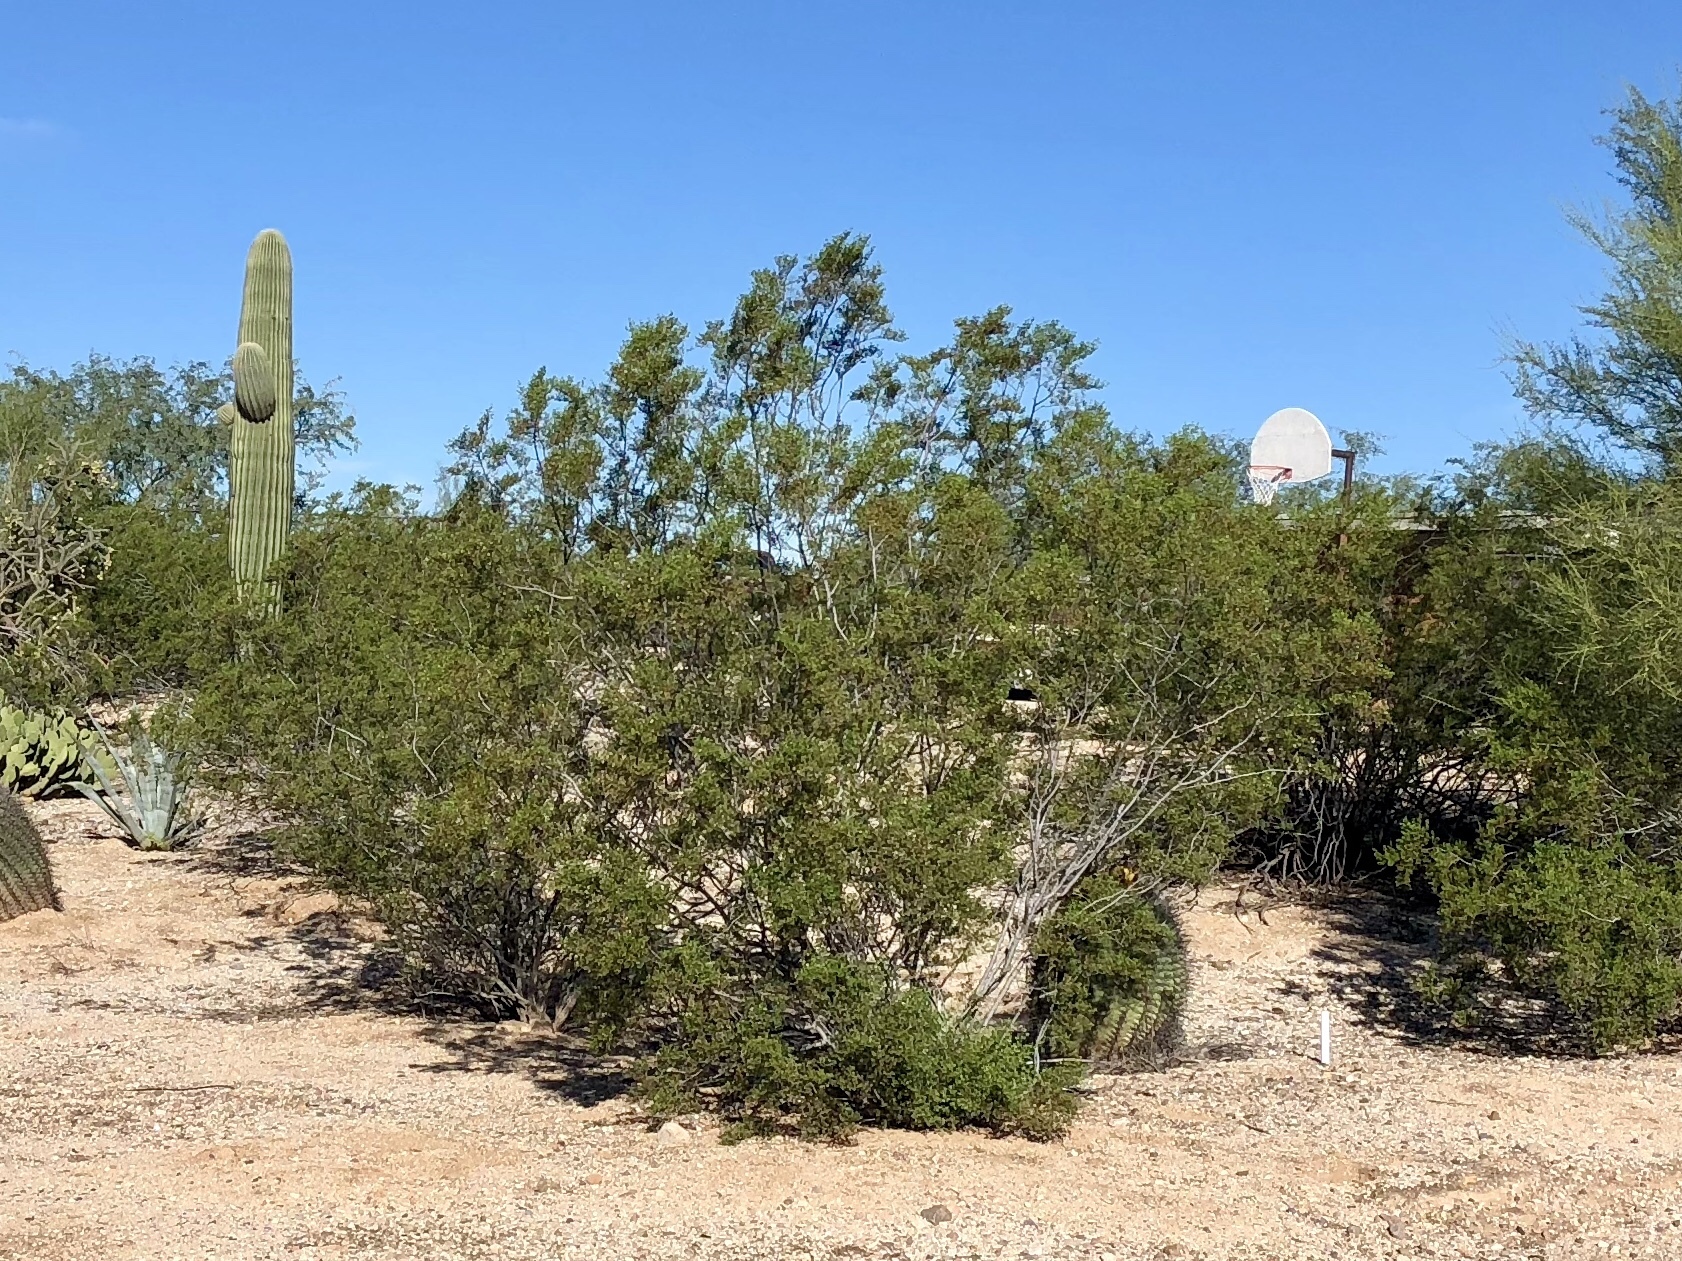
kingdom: Plantae
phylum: Tracheophyta
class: Magnoliopsida
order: Zygophyllales
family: Zygophyllaceae
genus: Larrea
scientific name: Larrea tridentata
